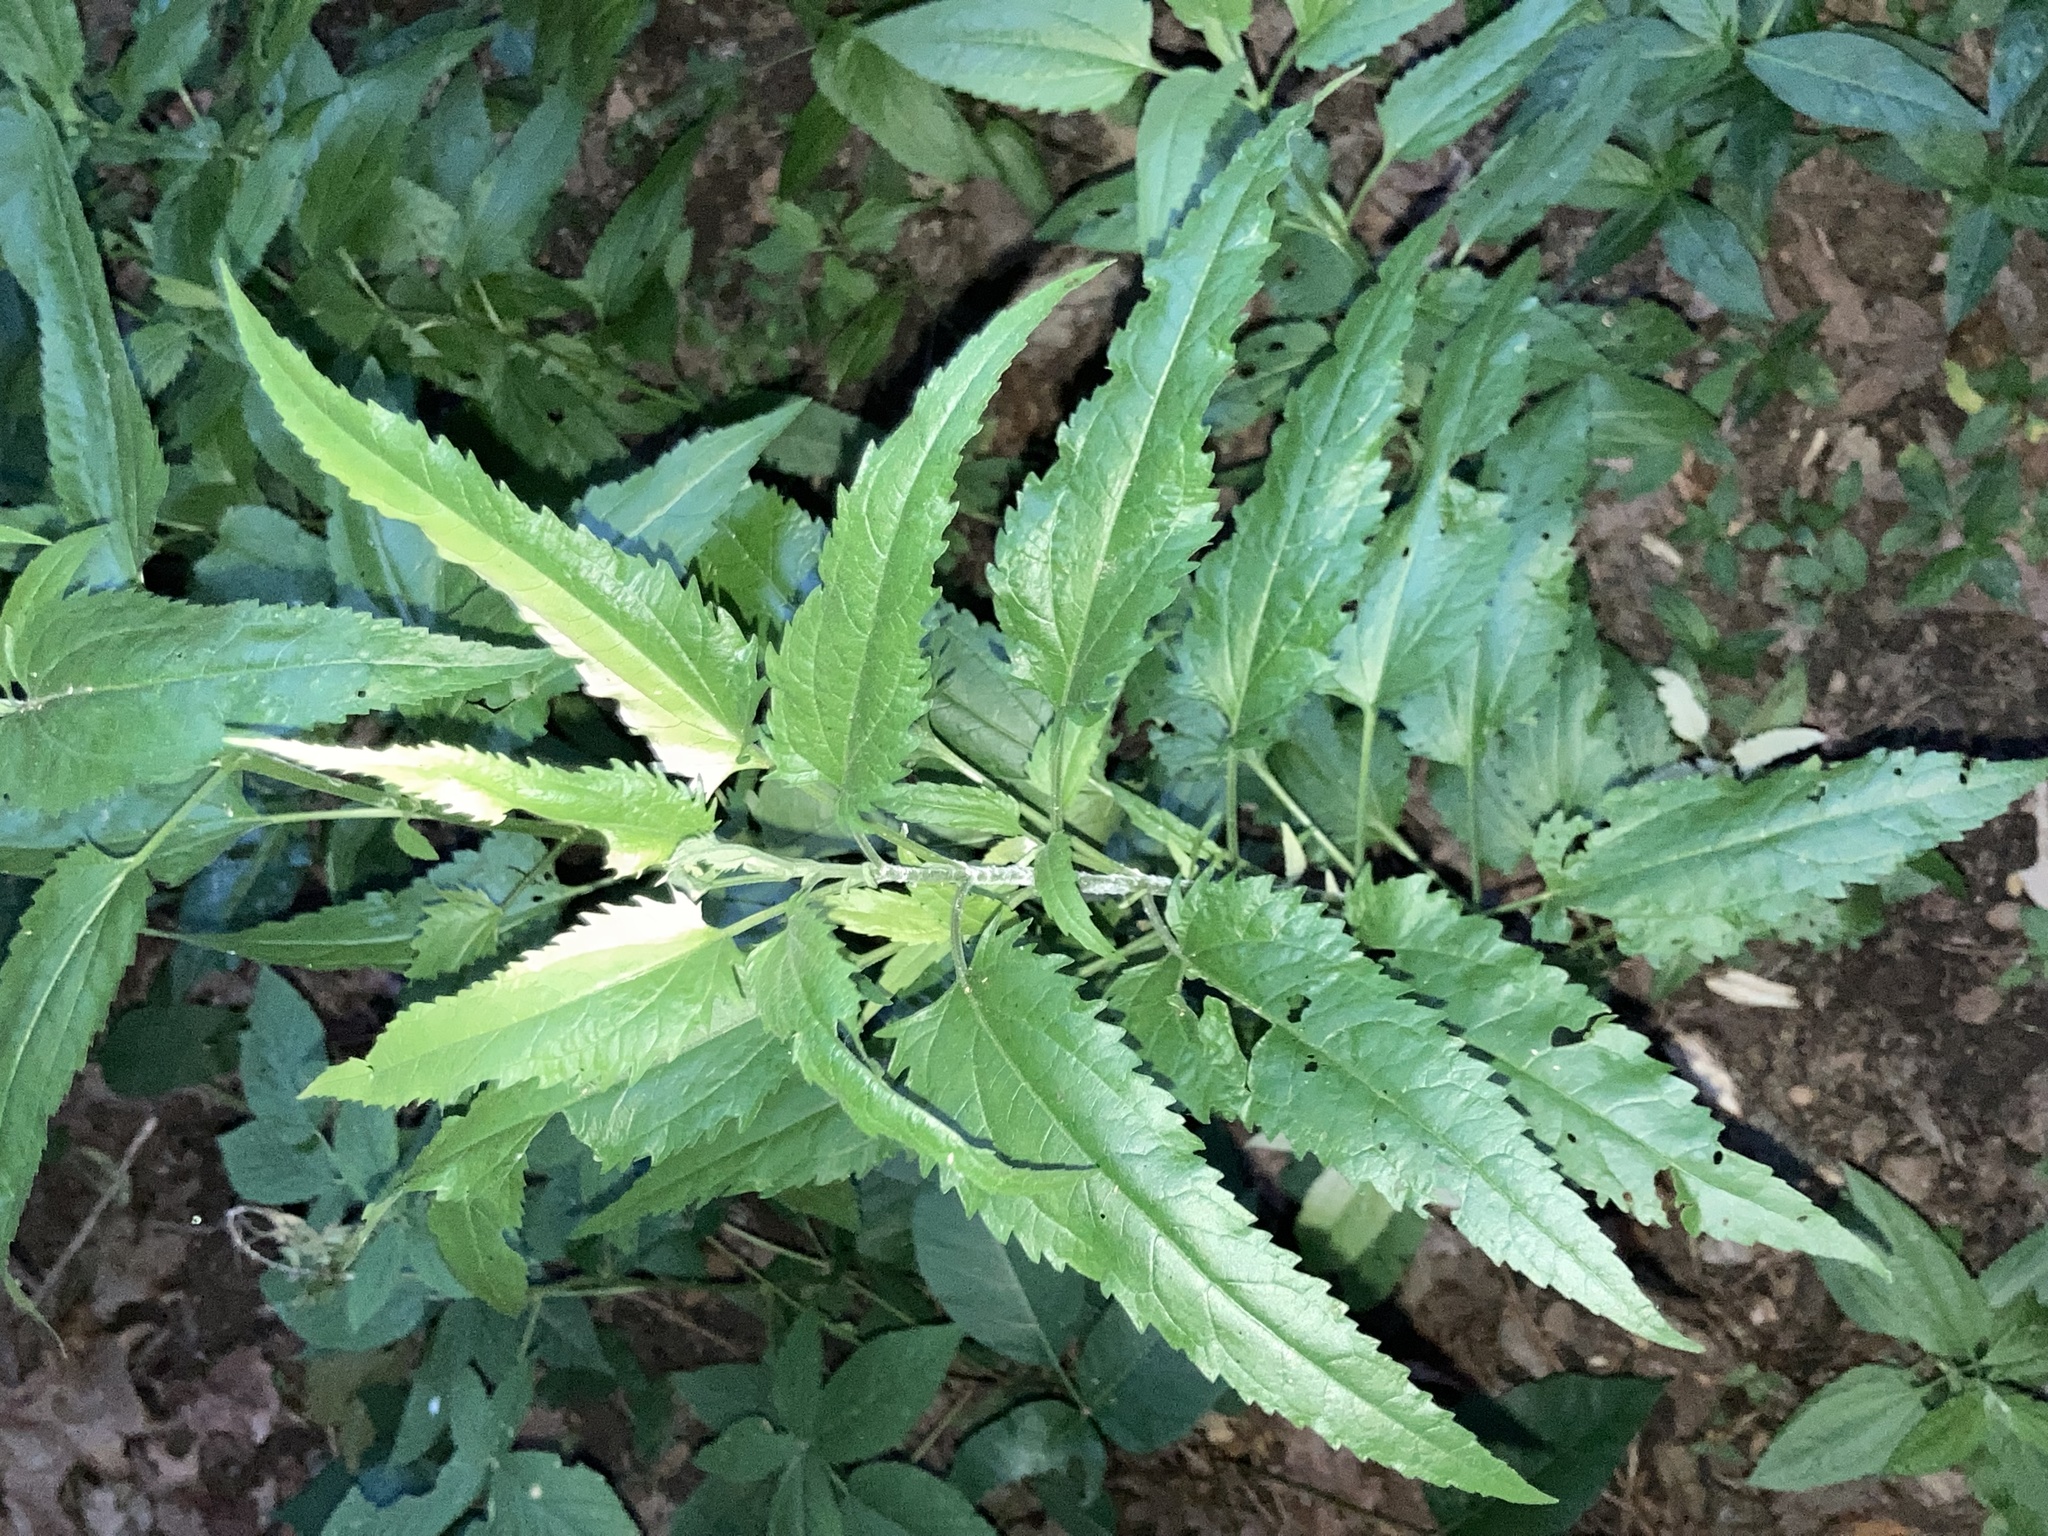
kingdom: Plantae
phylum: Tracheophyta
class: Magnoliopsida
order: Asterales
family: Asteraceae
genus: Eupatorium
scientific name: Eupatorium serotinum
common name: Late boneset
